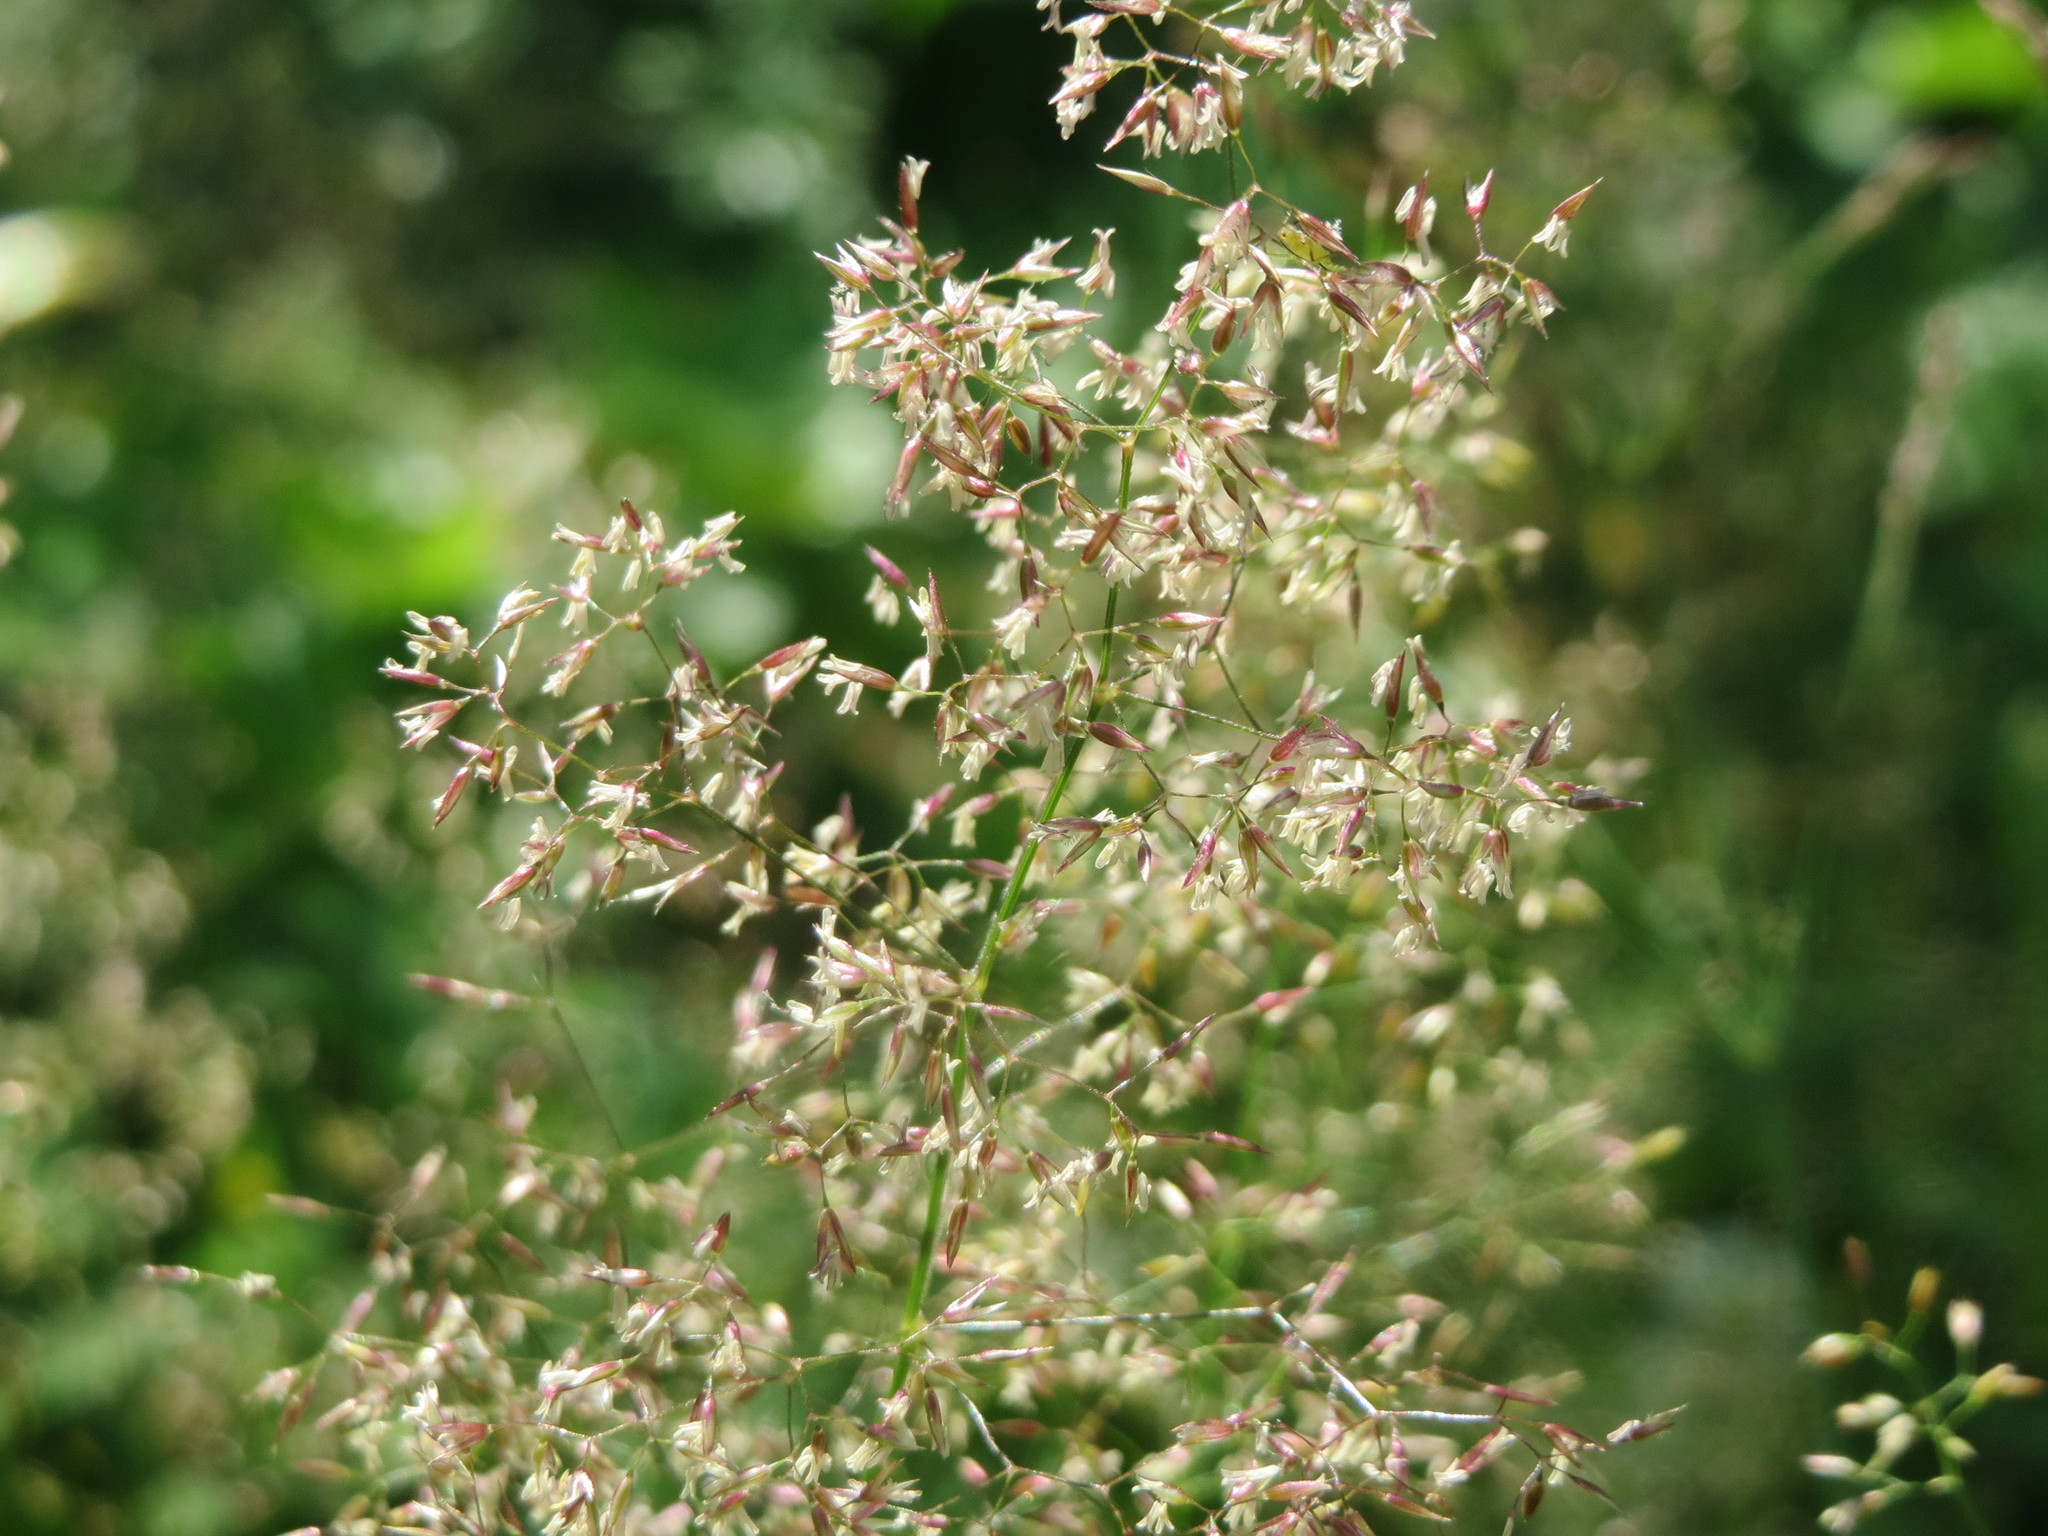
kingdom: Plantae
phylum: Tracheophyta
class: Liliopsida
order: Poales
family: Poaceae
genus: Agrostis
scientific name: Agrostis capillaris
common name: Colonial bentgrass
